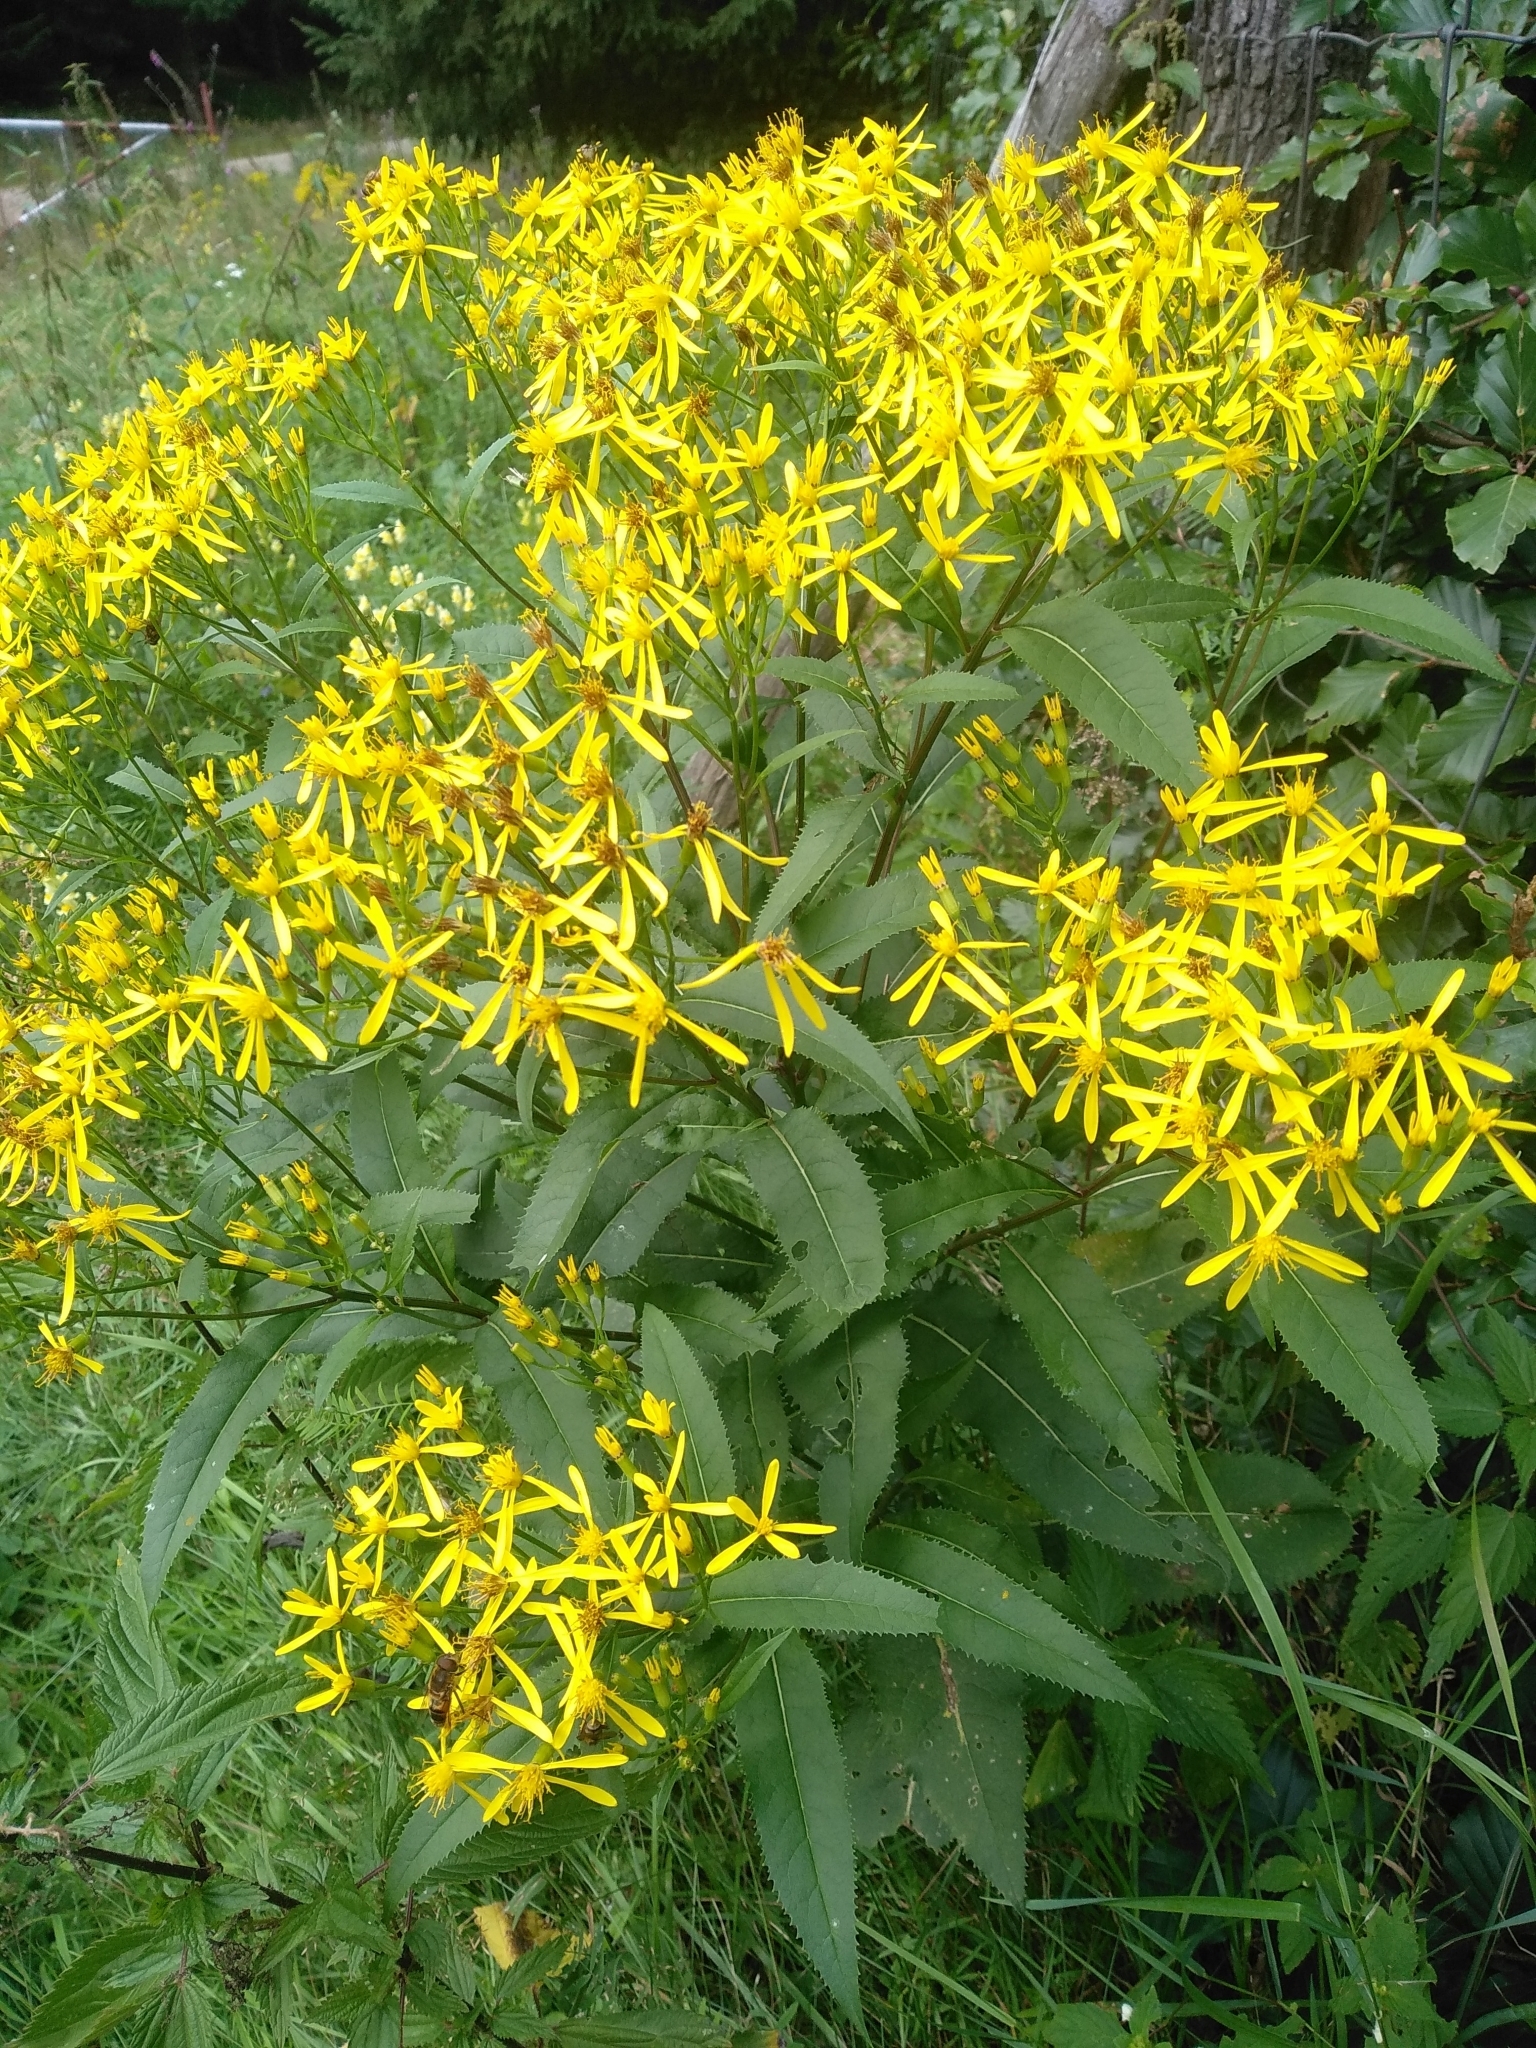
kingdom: Plantae
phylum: Tracheophyta
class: Magnoliopsida
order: Asterales
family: Asteraceae
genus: Senecio
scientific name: Senecio ovatus
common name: Wood ragwort
